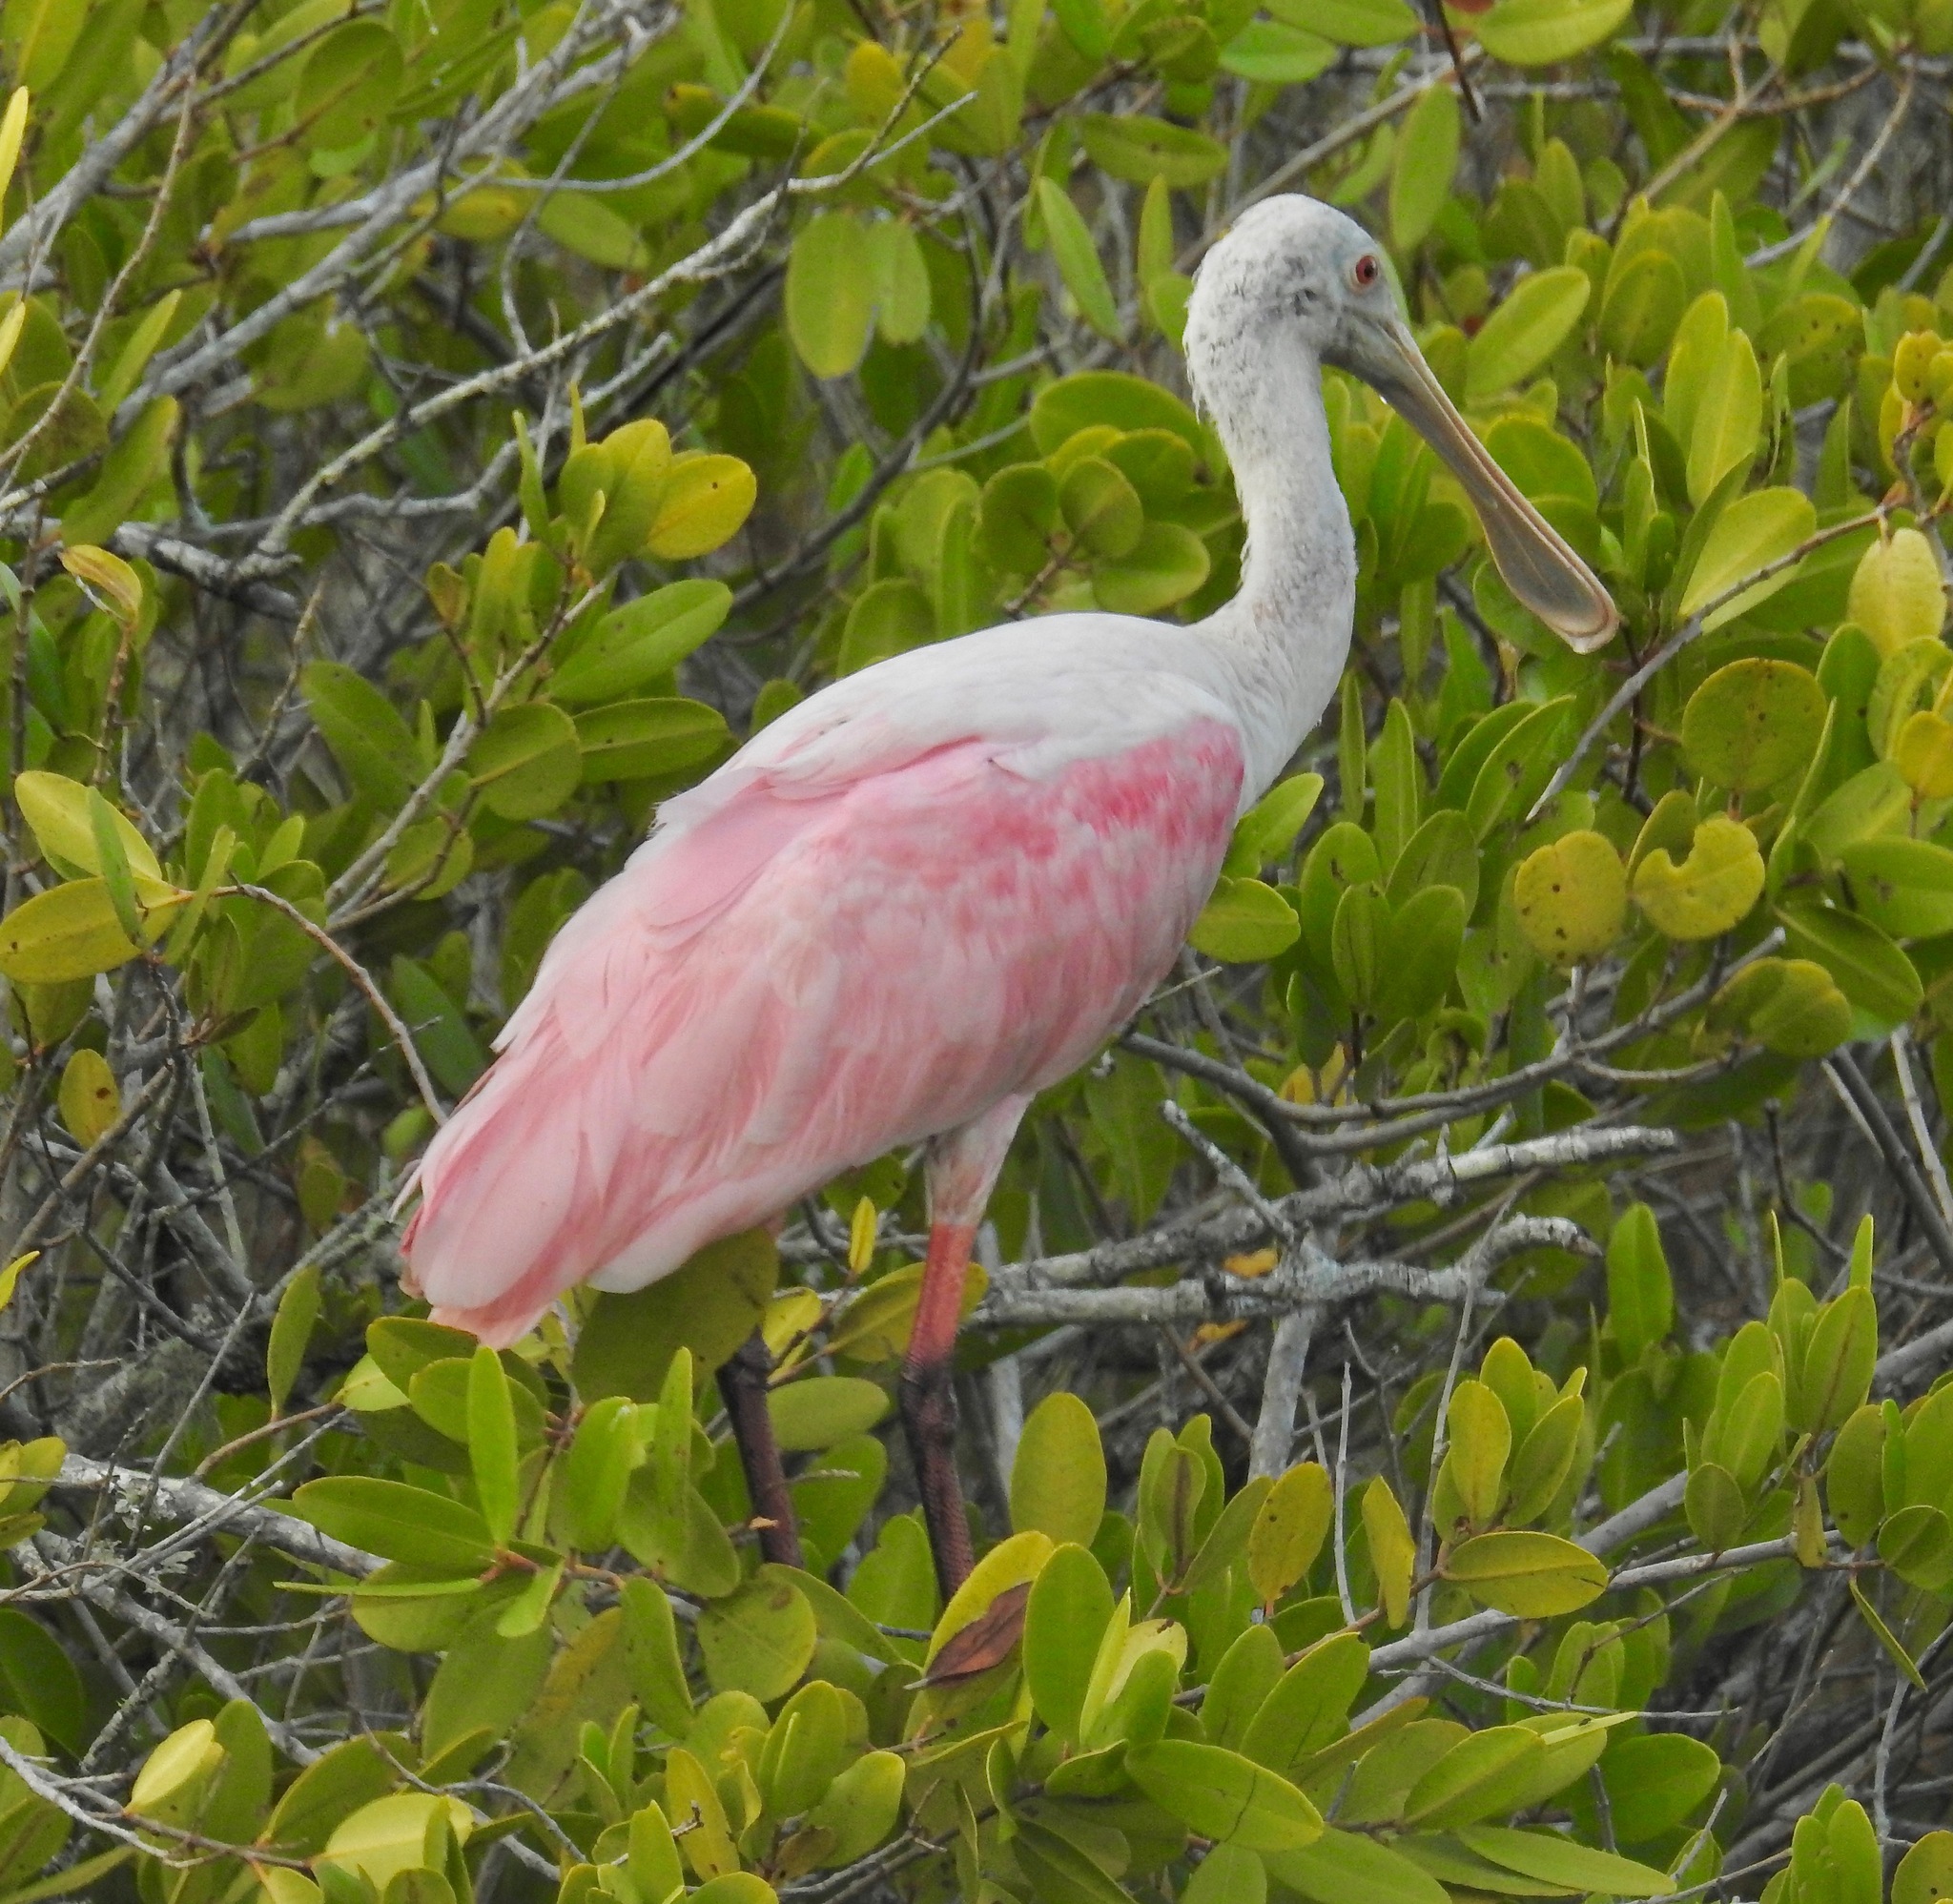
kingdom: Animalia
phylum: Chordata
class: Aves
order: Pelecaniformes
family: Threskiornithidae
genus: Platalea
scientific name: Platalea ajaja
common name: Roseate spoonbill
